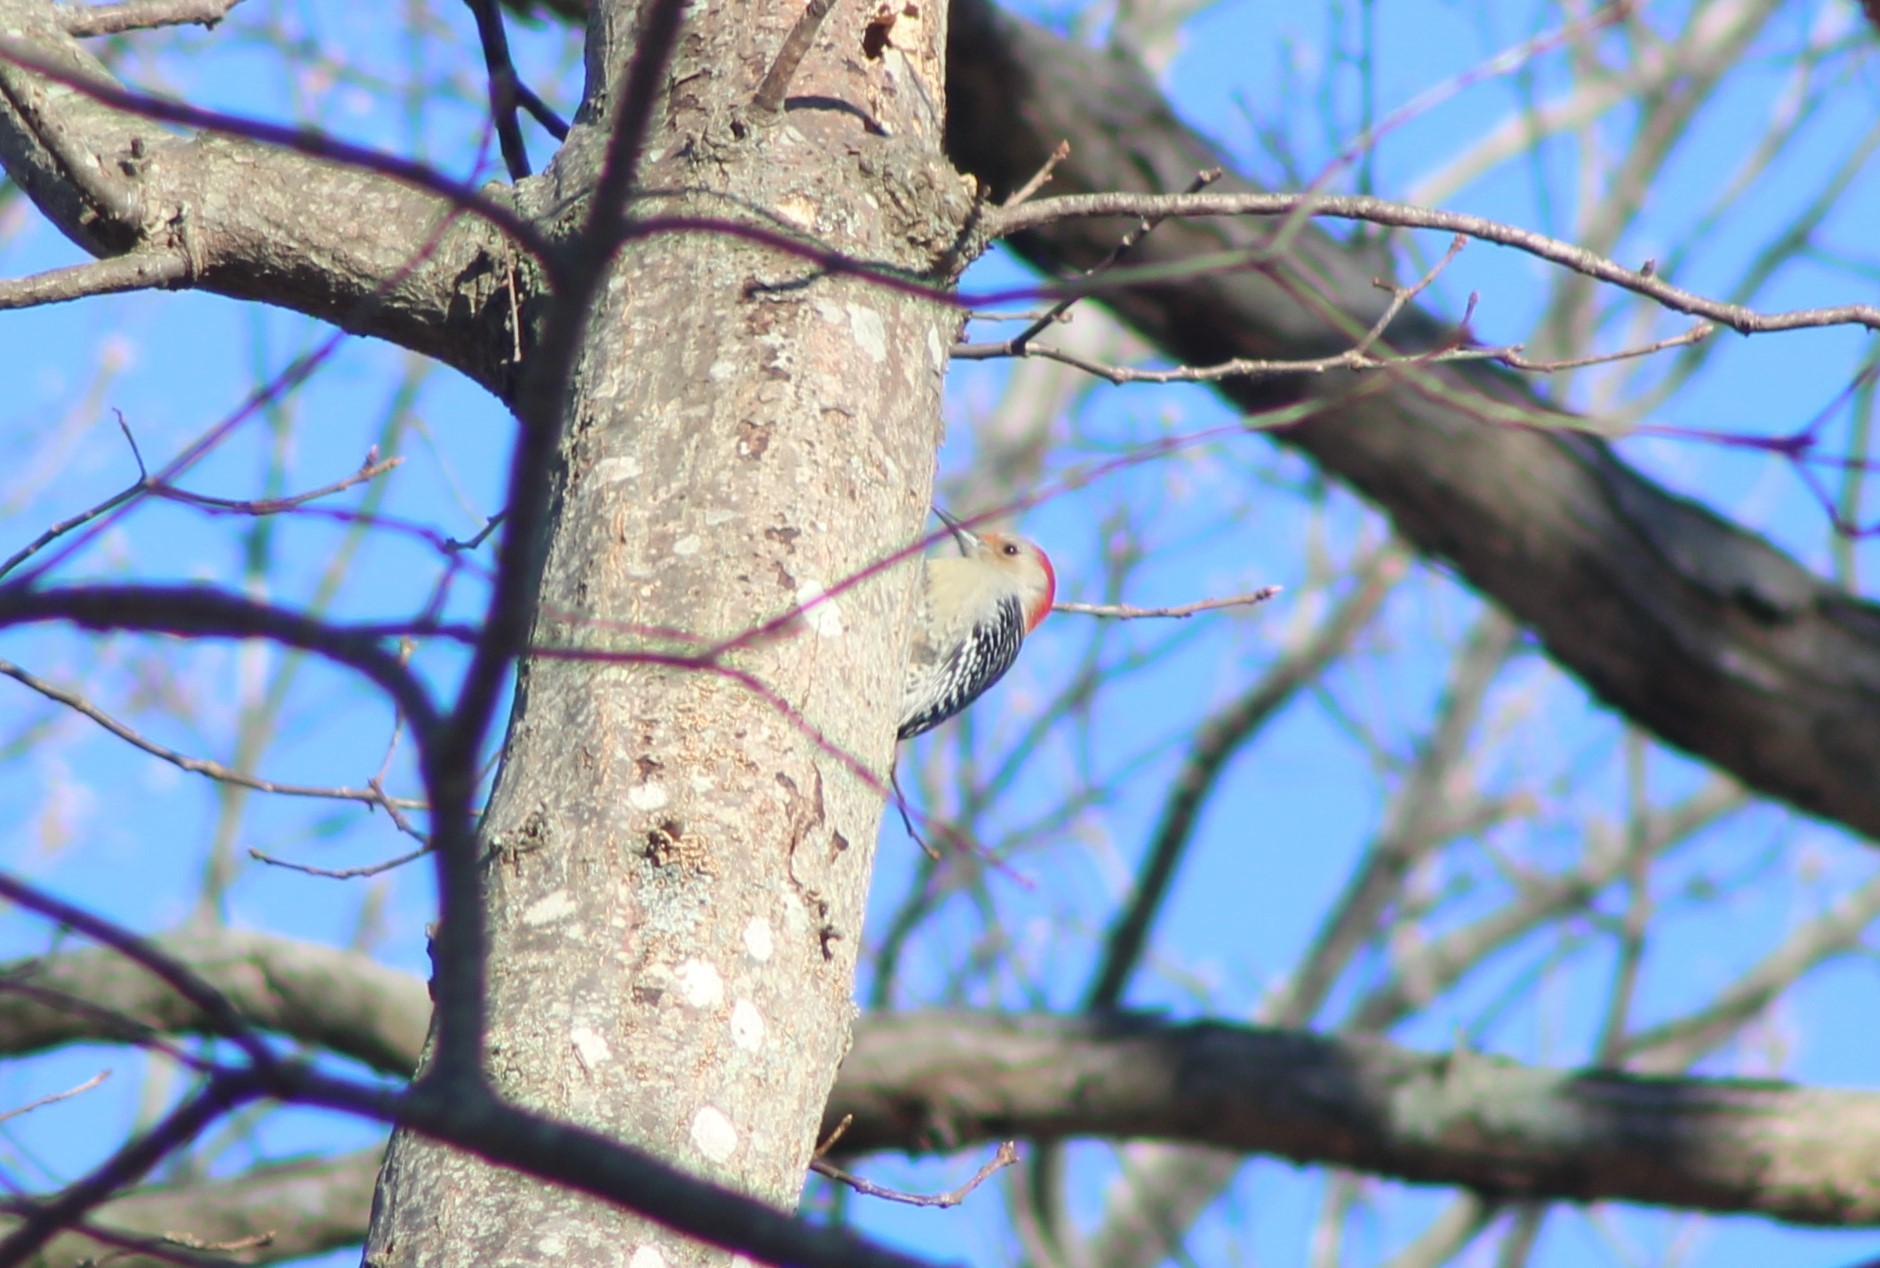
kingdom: Animalia
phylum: Chordata
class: Aves
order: Piciformes
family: Picidae
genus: Melanerpes
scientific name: Melanerpes carolinus
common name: Red-bellied woodpecker
